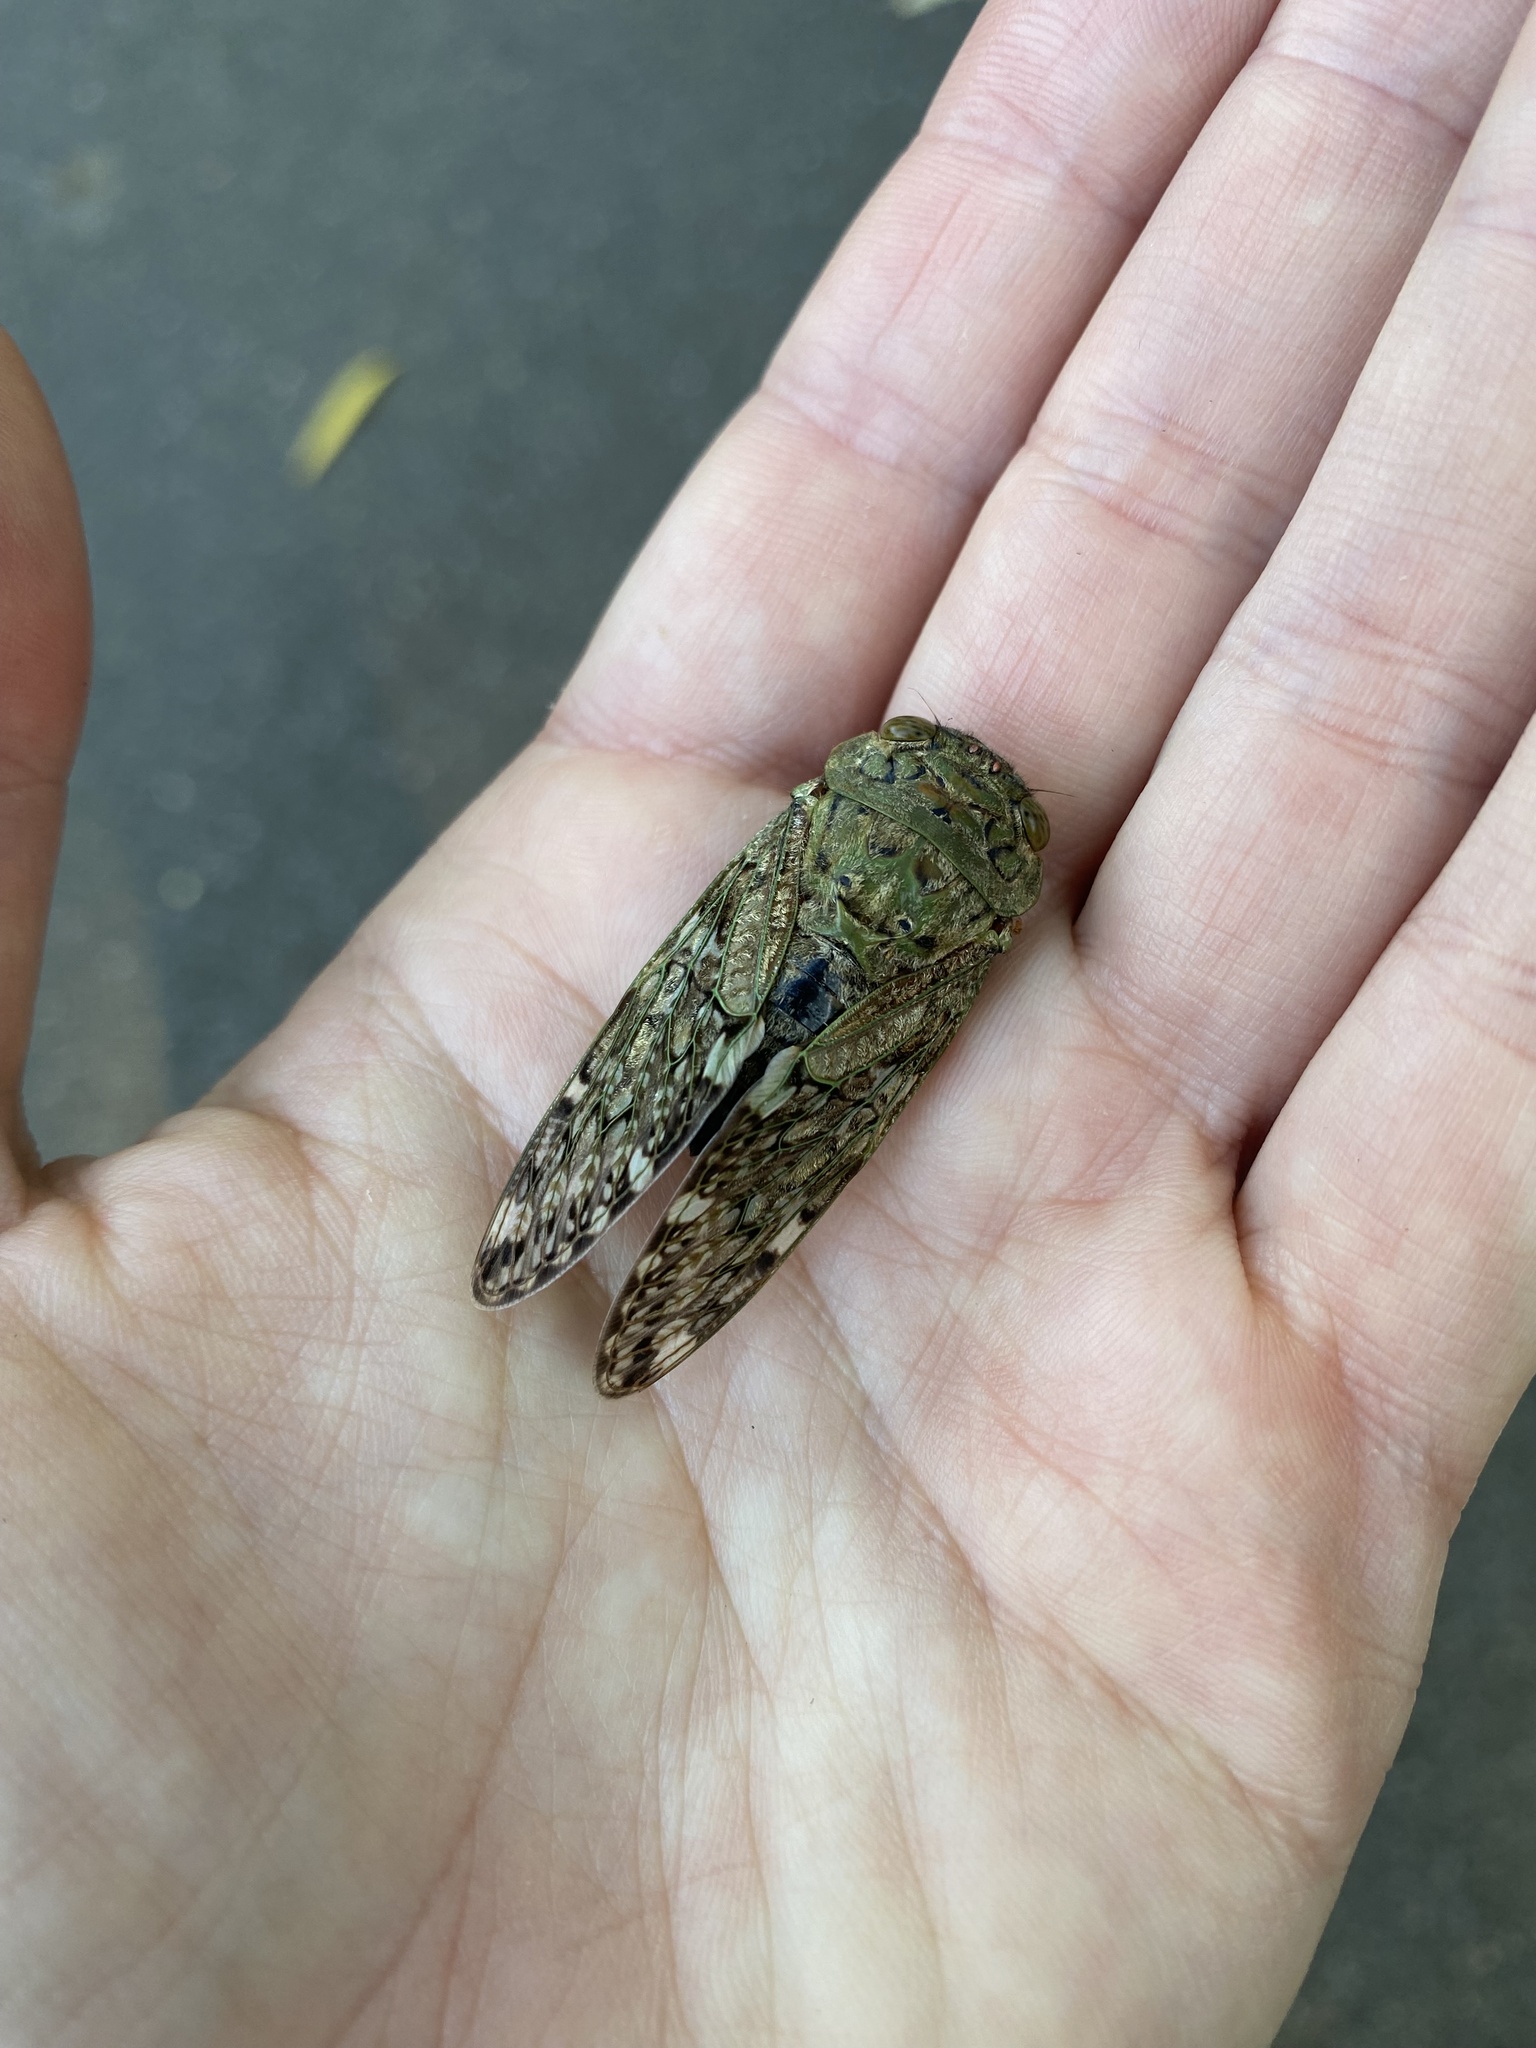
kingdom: Animalia
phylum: Arthropoda
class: Insecta
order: Hemiptera
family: Cicadidae
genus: Platypleura
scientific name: Platypleura brunea
